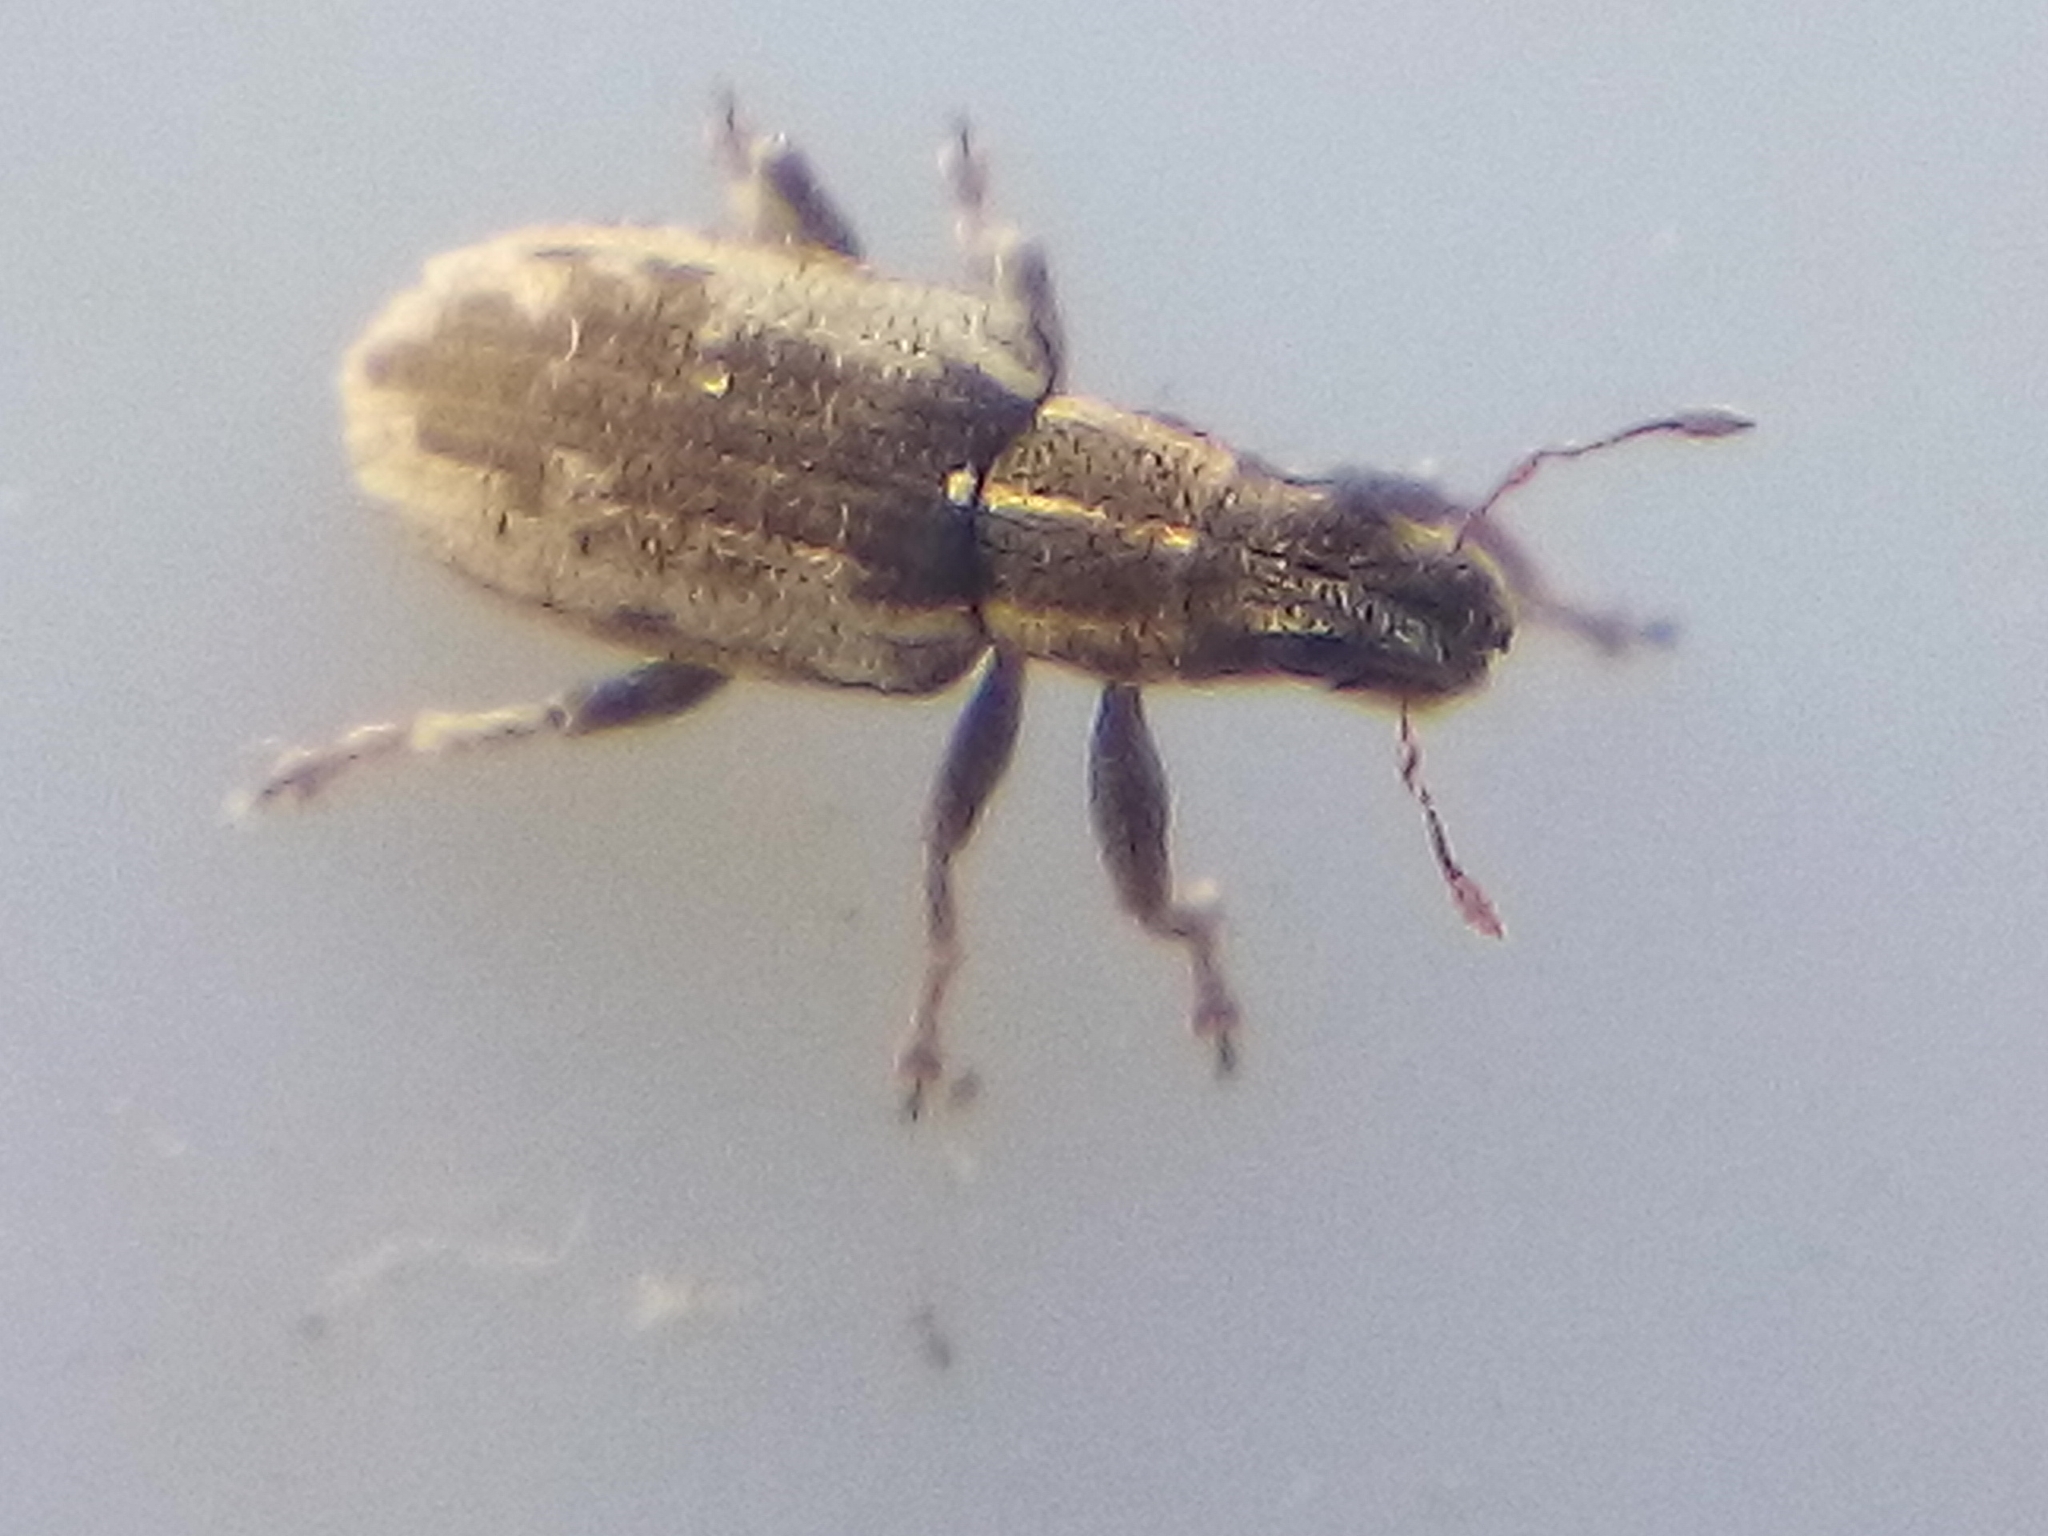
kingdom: Animalia
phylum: Arthropoda
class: Insecta
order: Coleoptera
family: Curculionidae
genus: Sitona
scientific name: Sitona discoideus
